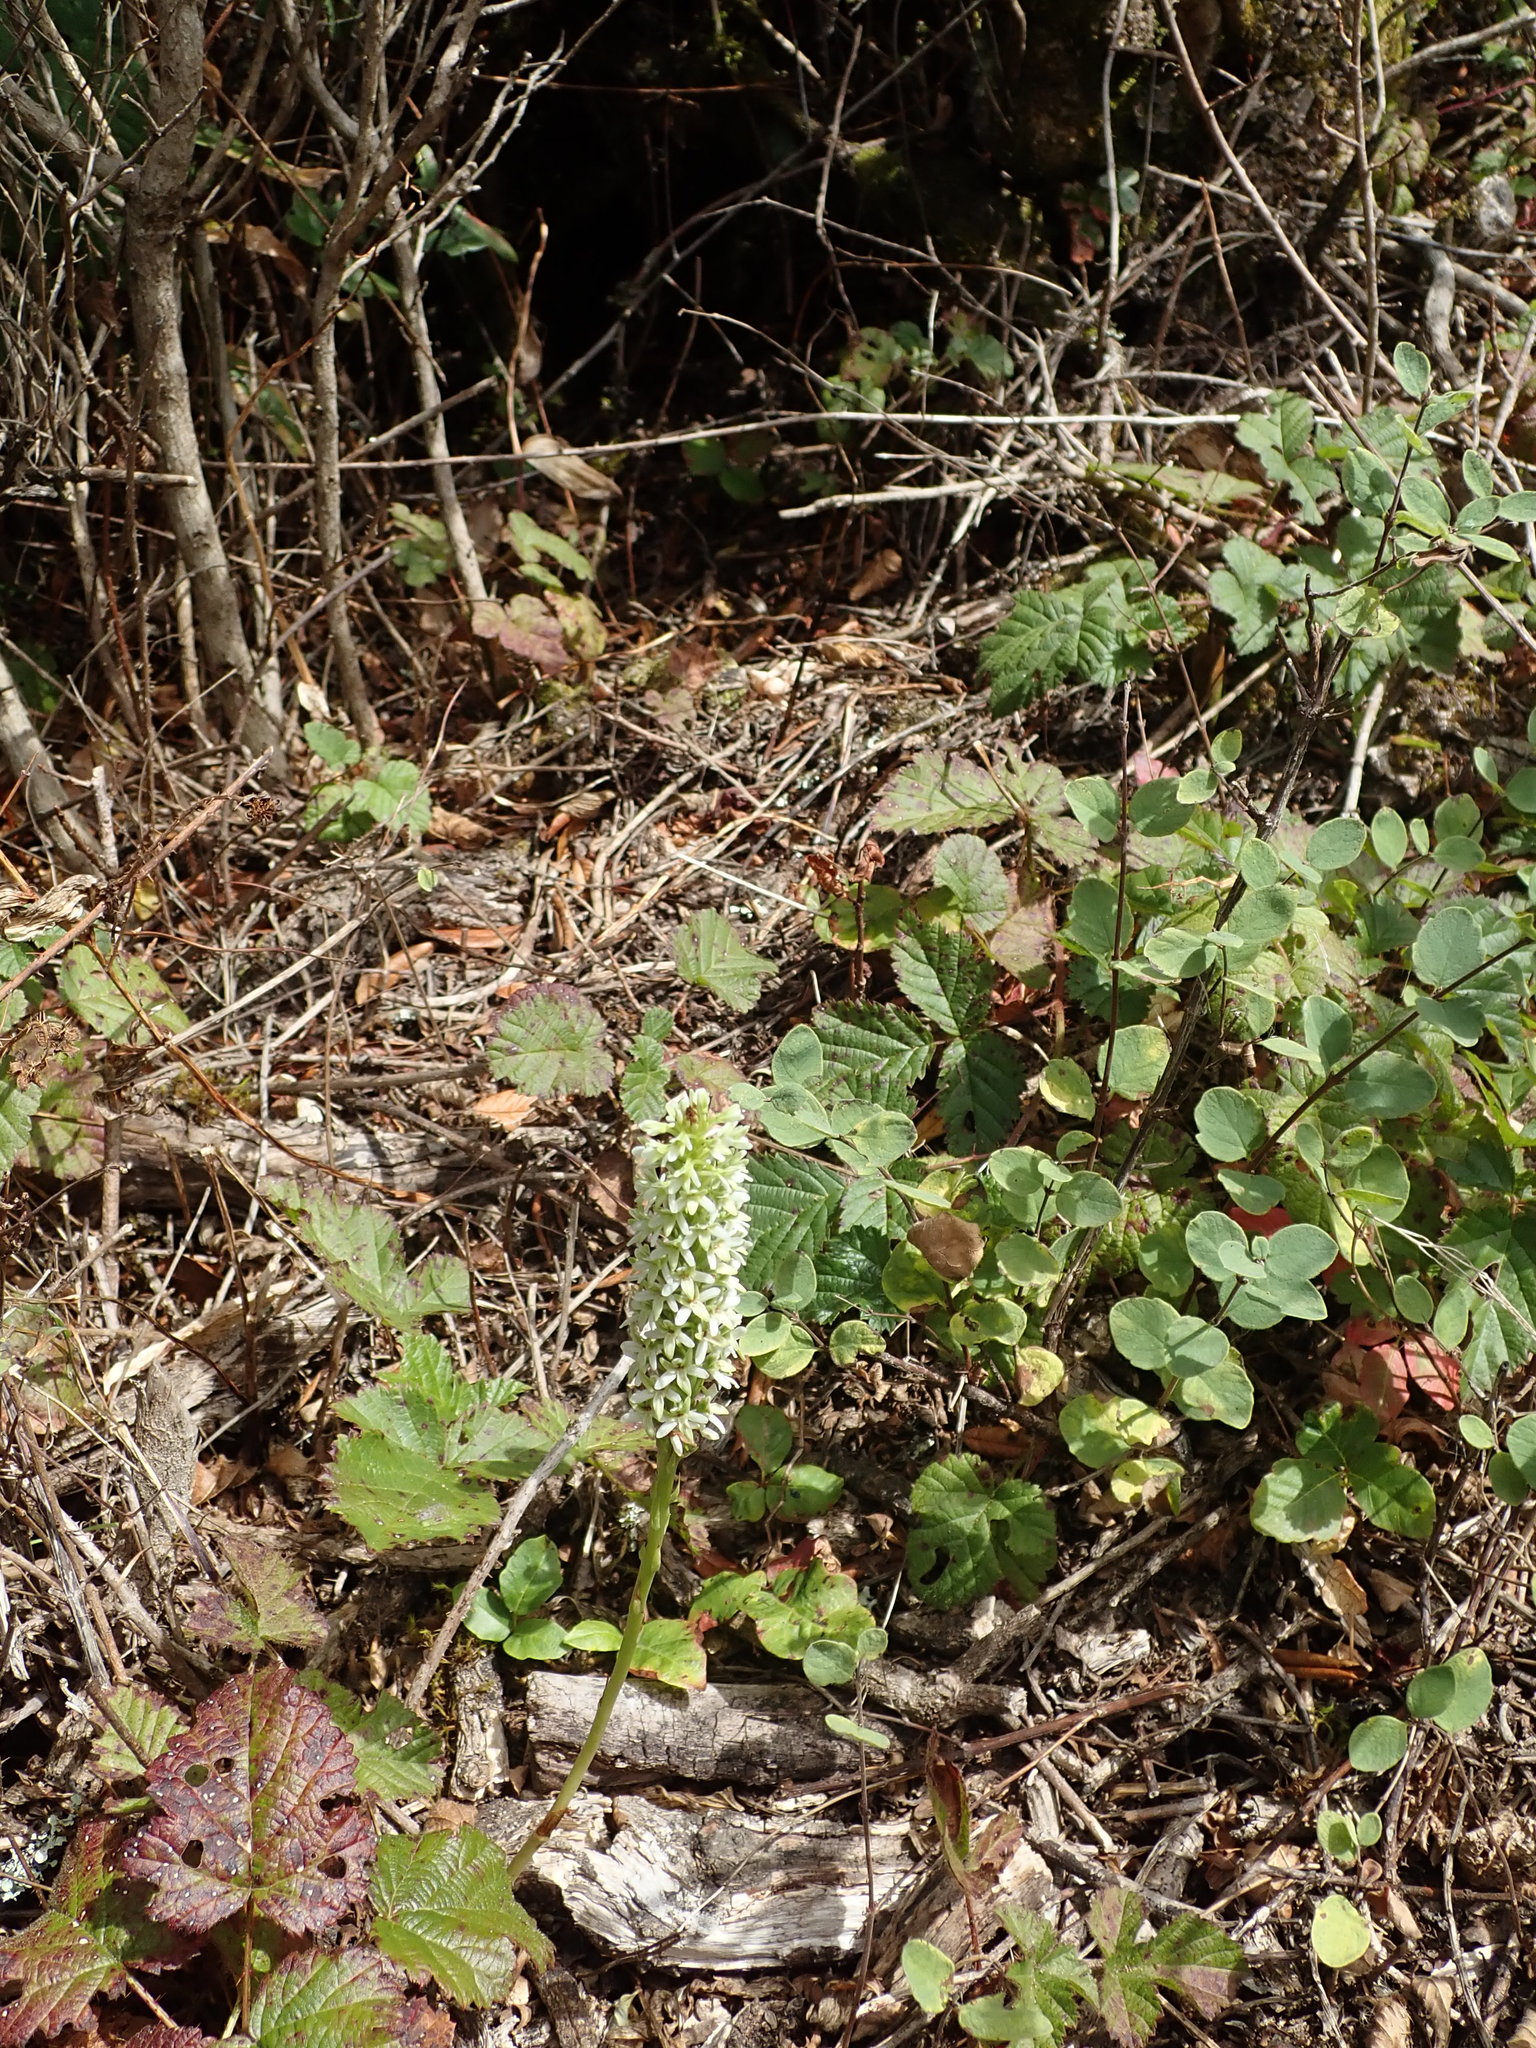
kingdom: Plantae
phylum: Tracheophyta
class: Liliopsida
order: Asparagales
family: Orchidaceae
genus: Platanthera
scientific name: Platanthera elegans
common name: Coast piperia
